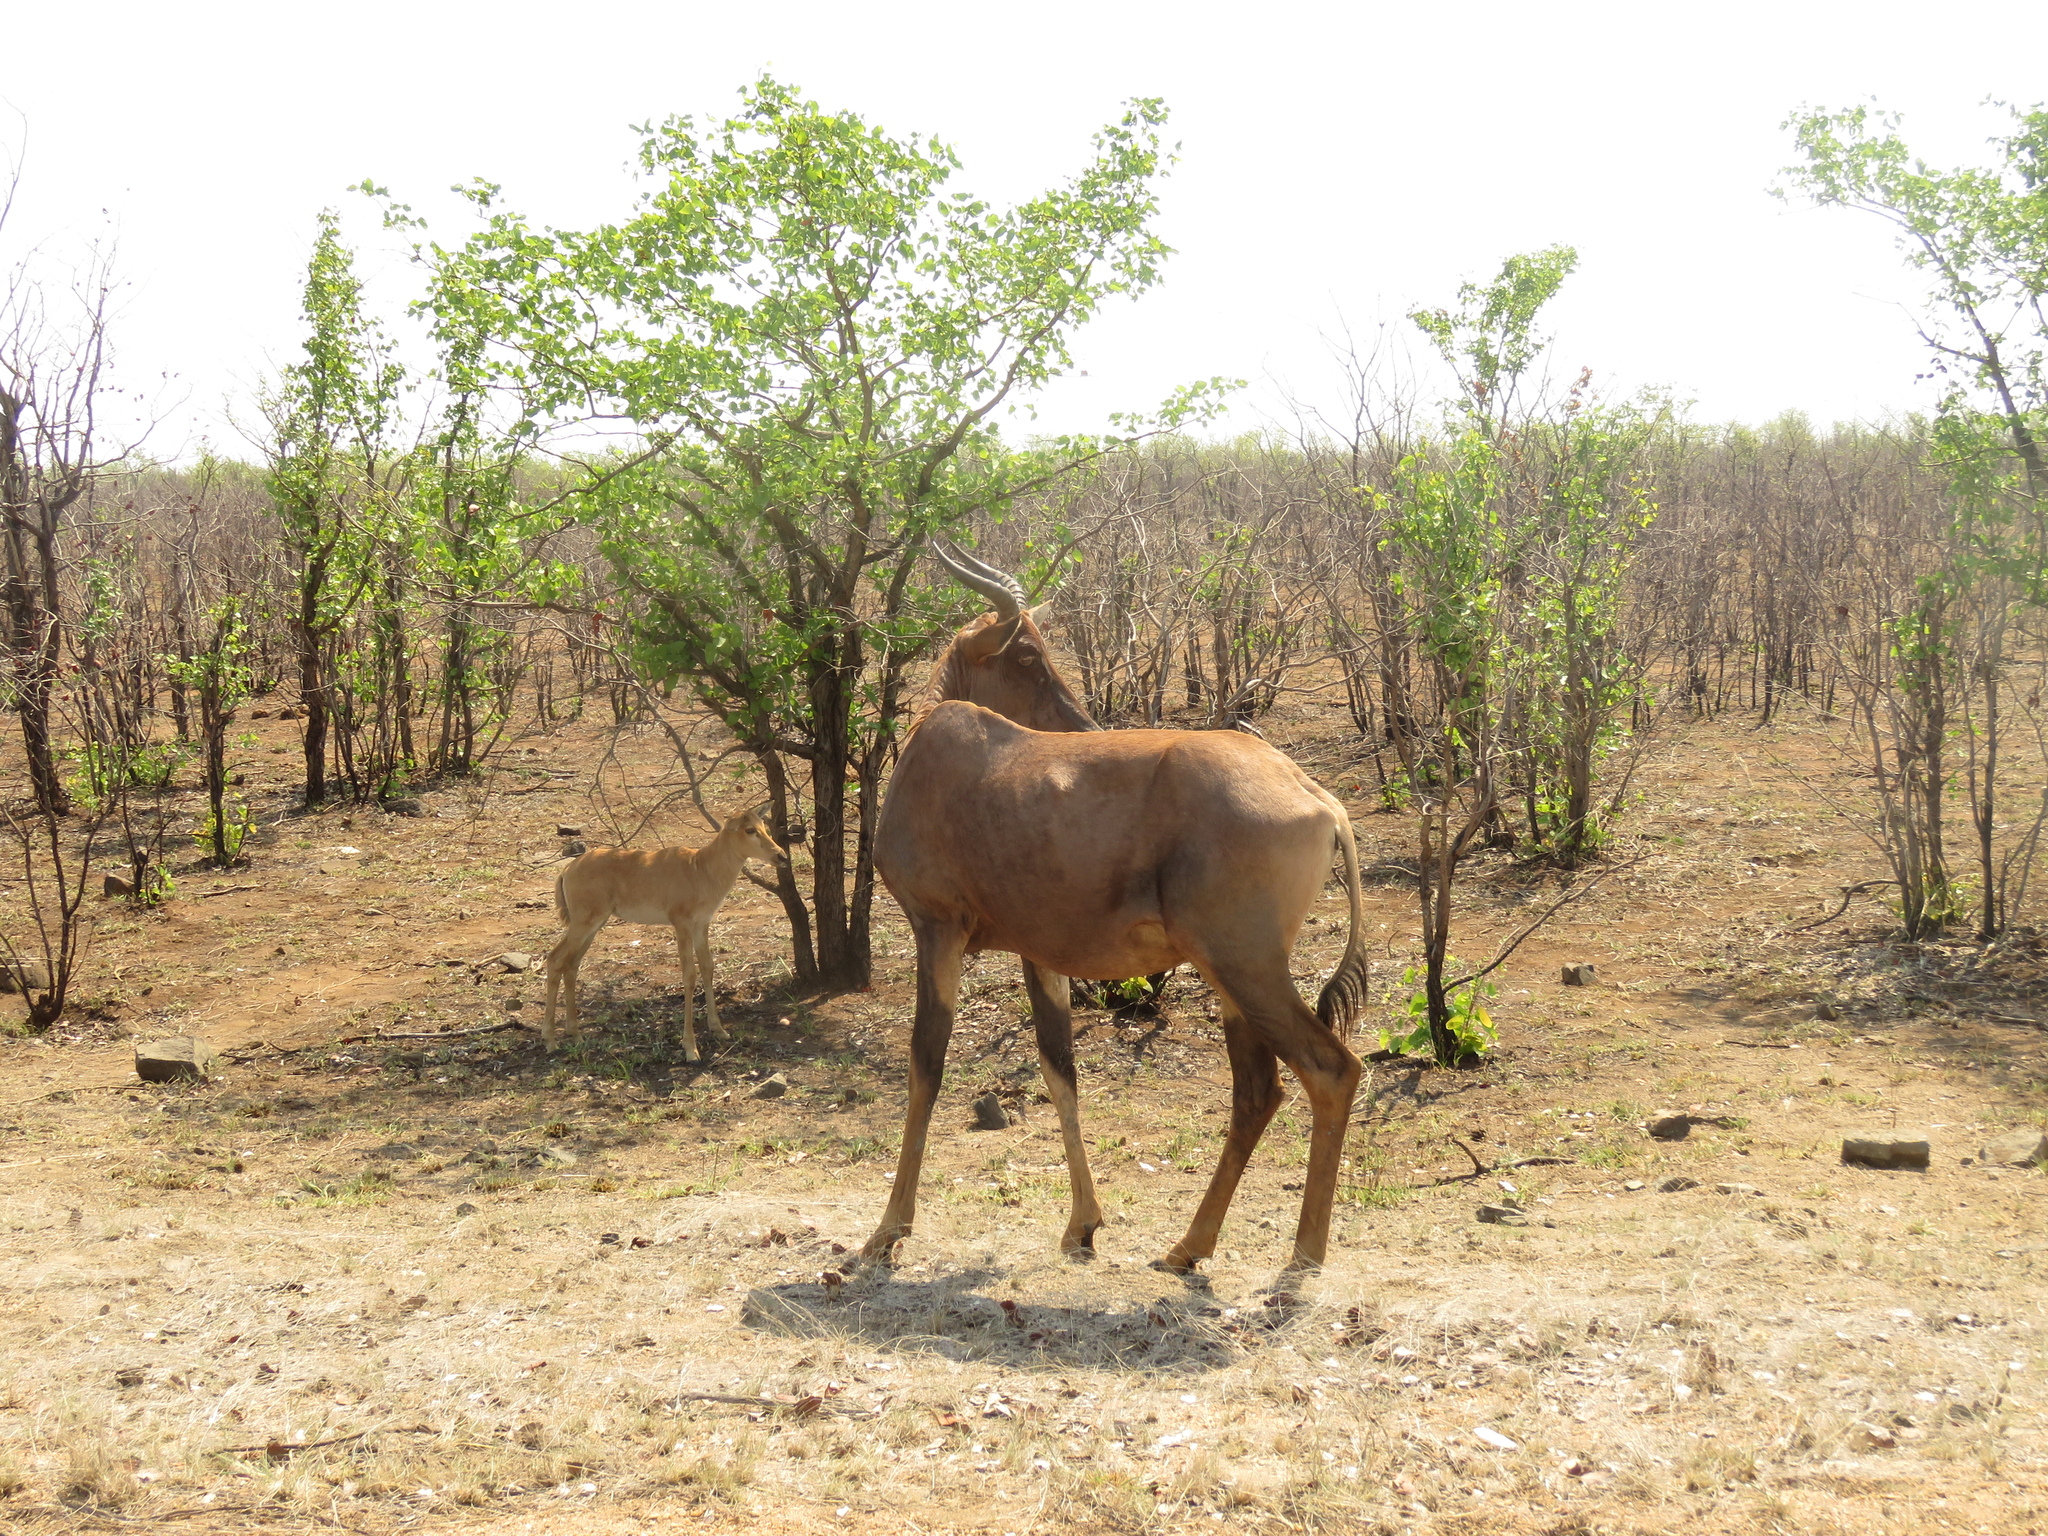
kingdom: Animalia
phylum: Chordata
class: Mammalia
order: Artiodactyla
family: Bovidae
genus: Damaliscus
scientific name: Damaliscus lunatus
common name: Common tsessebe
